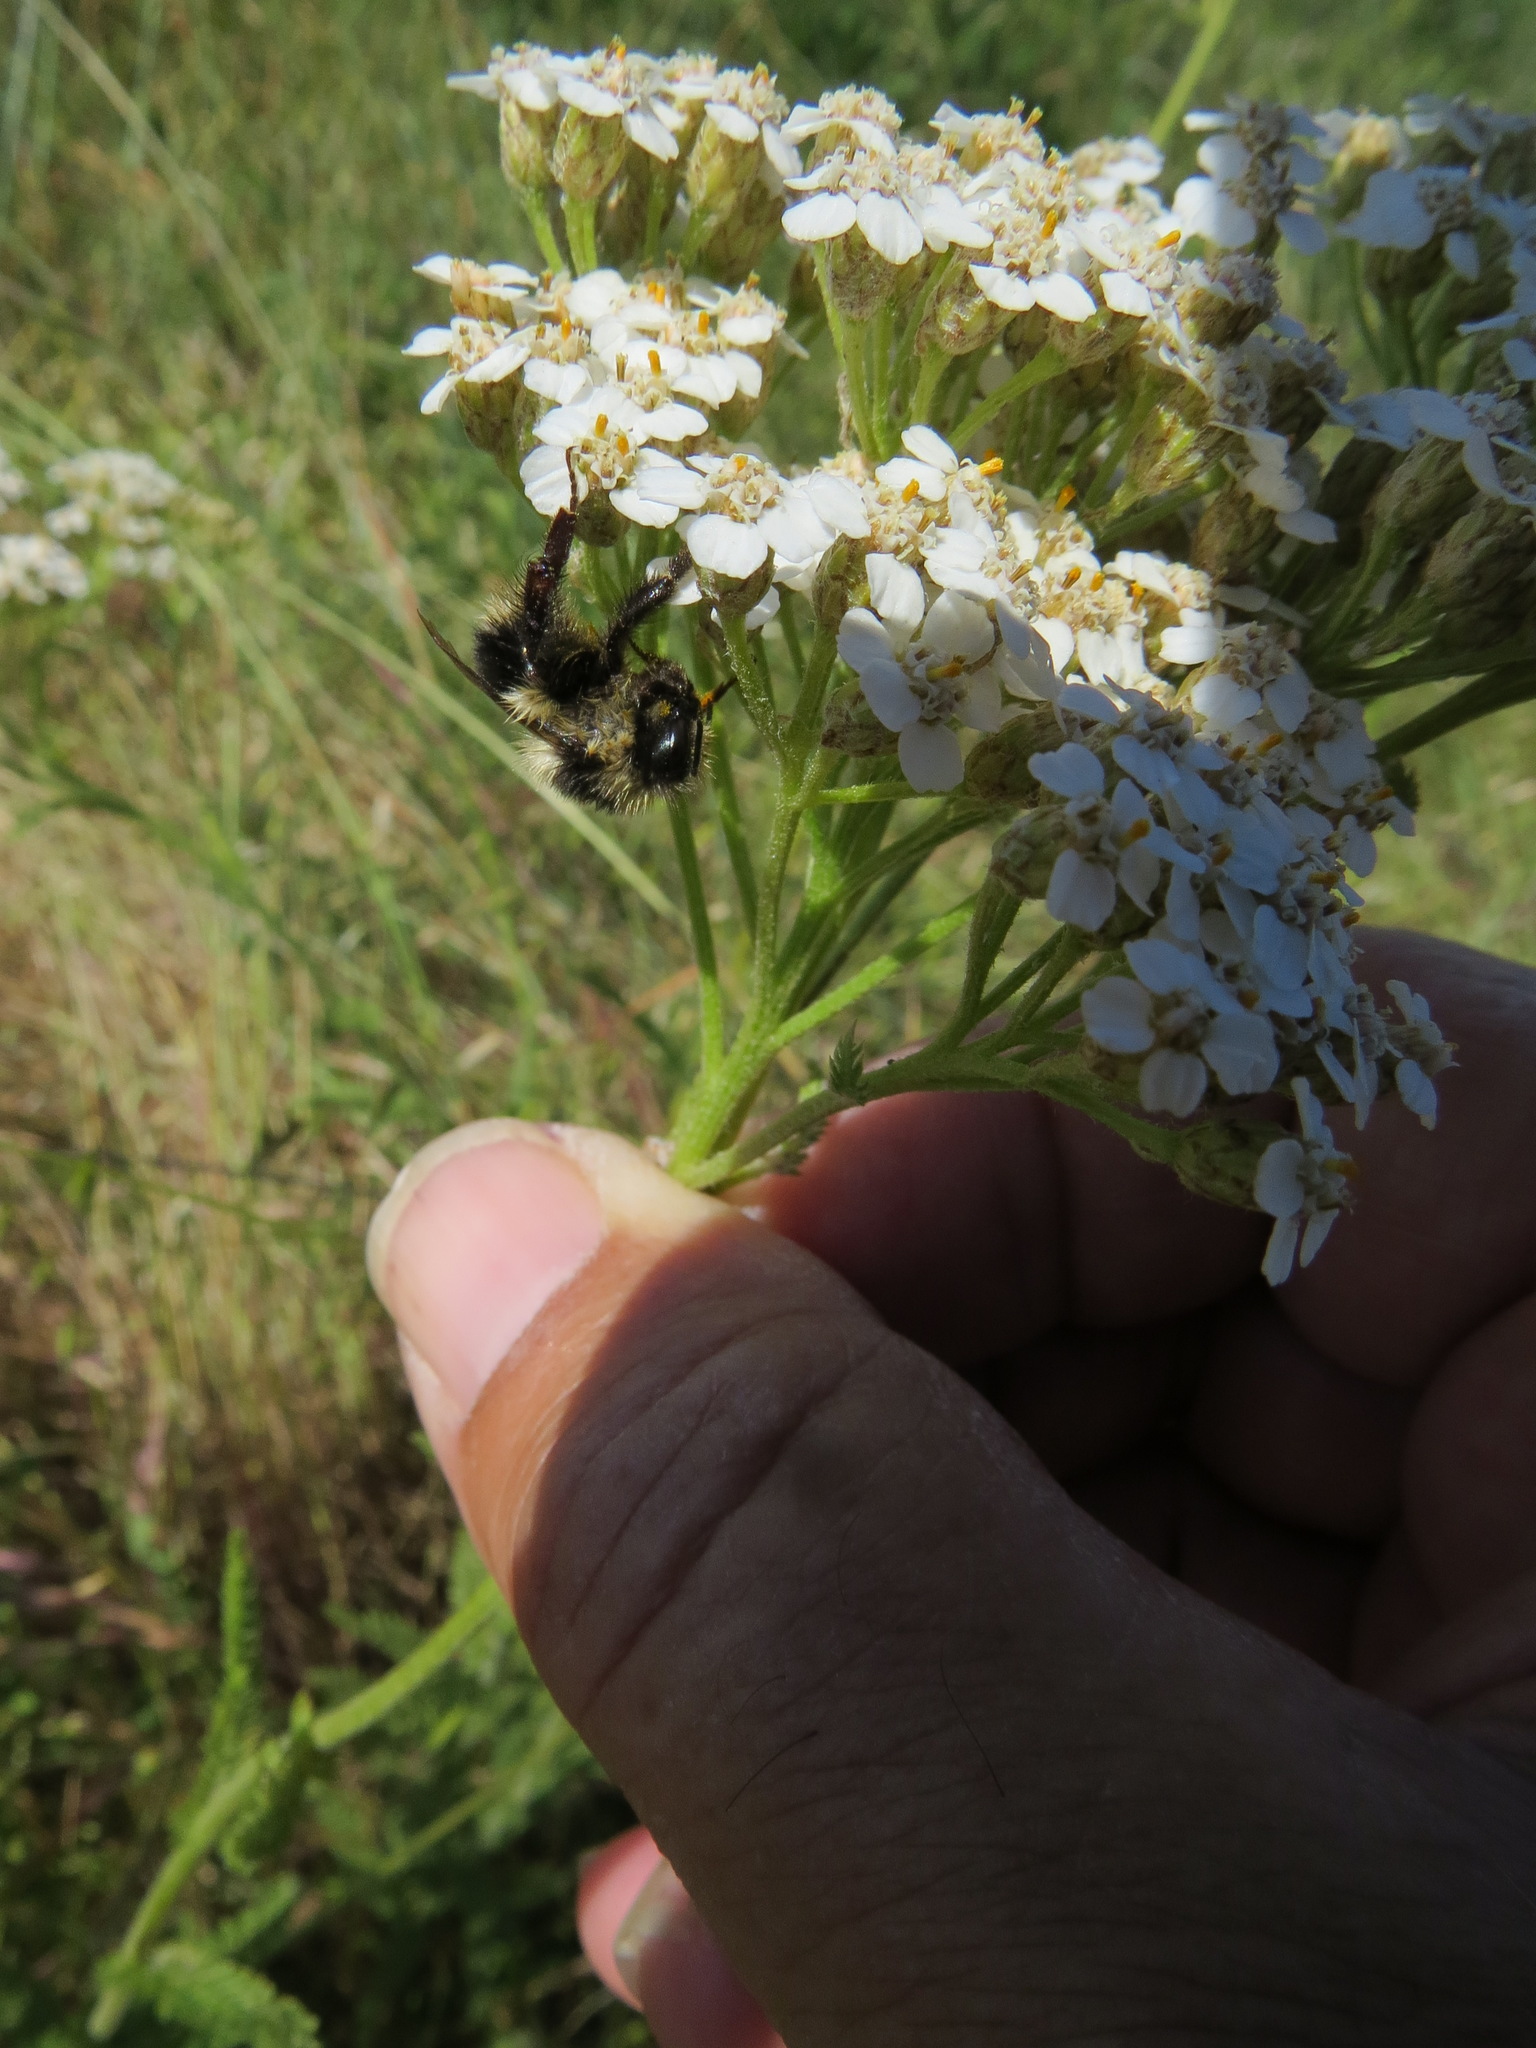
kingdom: Animalia
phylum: Arthropoda
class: Insecta
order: Hymenoptera
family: Apidae
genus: Bombus
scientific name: Bombus melanopygus
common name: Black tail bumble bee
